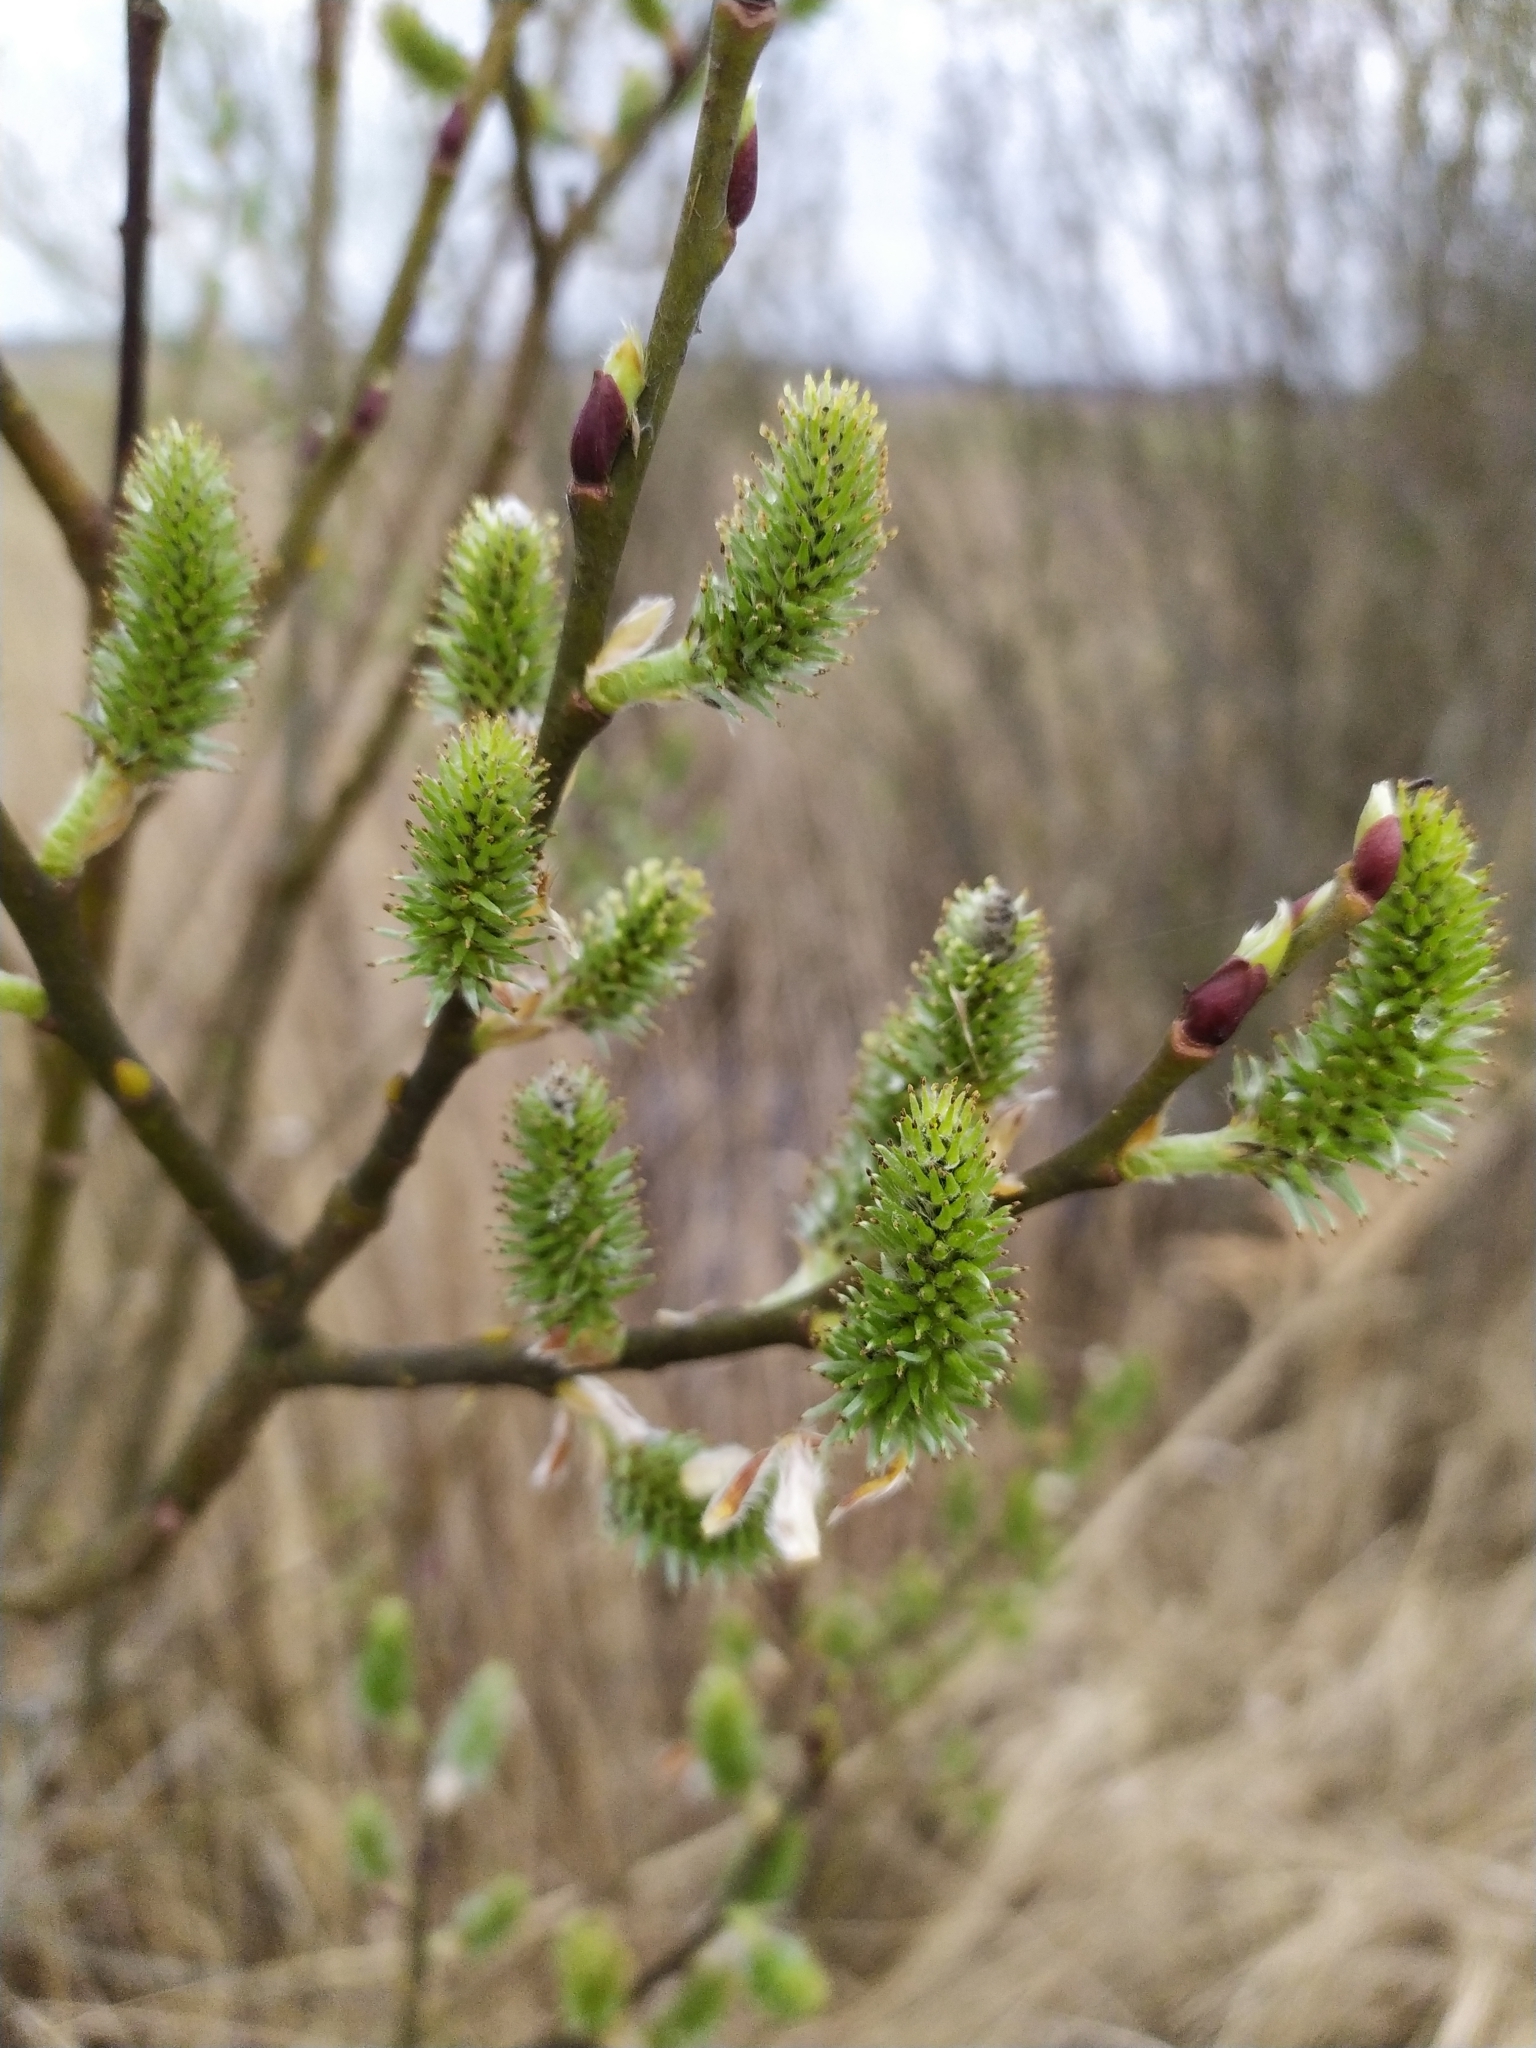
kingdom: Plantae
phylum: Tracheophyta
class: Magnoliopsida
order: Malpighiales
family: Salicaceae
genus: Salix
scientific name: Salix caprea
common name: Goat willow
